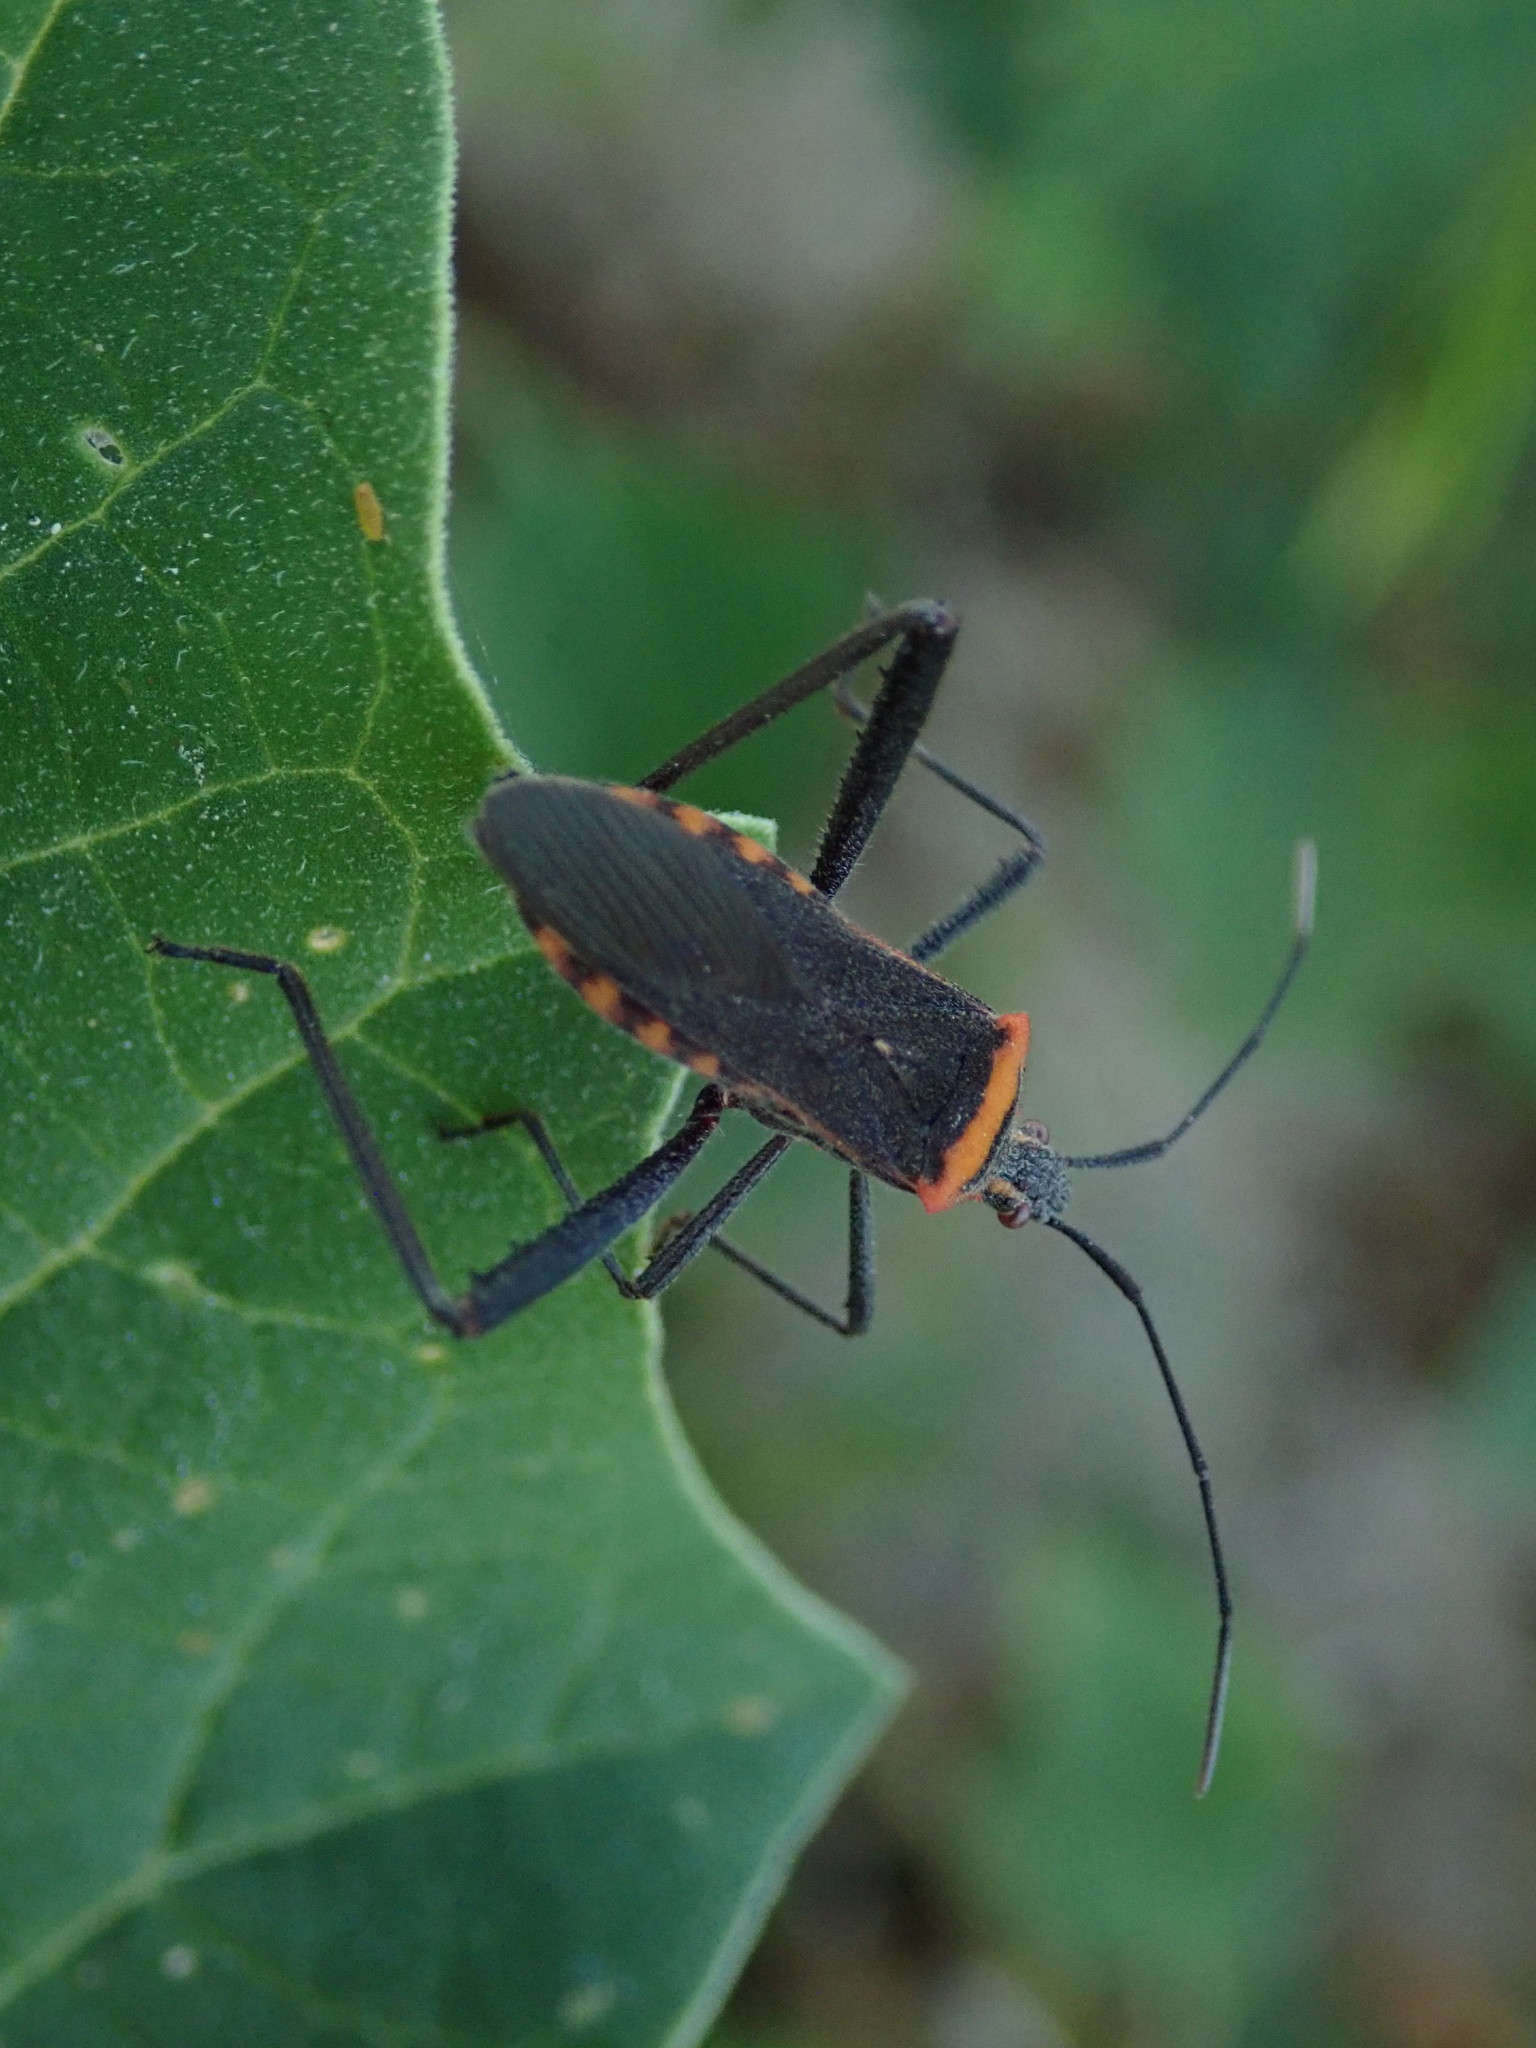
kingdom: Animalia
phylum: Arthropoda
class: Insecta
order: Hemiptera
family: Coreidae
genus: Phthiacnemia
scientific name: Phthiacnemia picta
